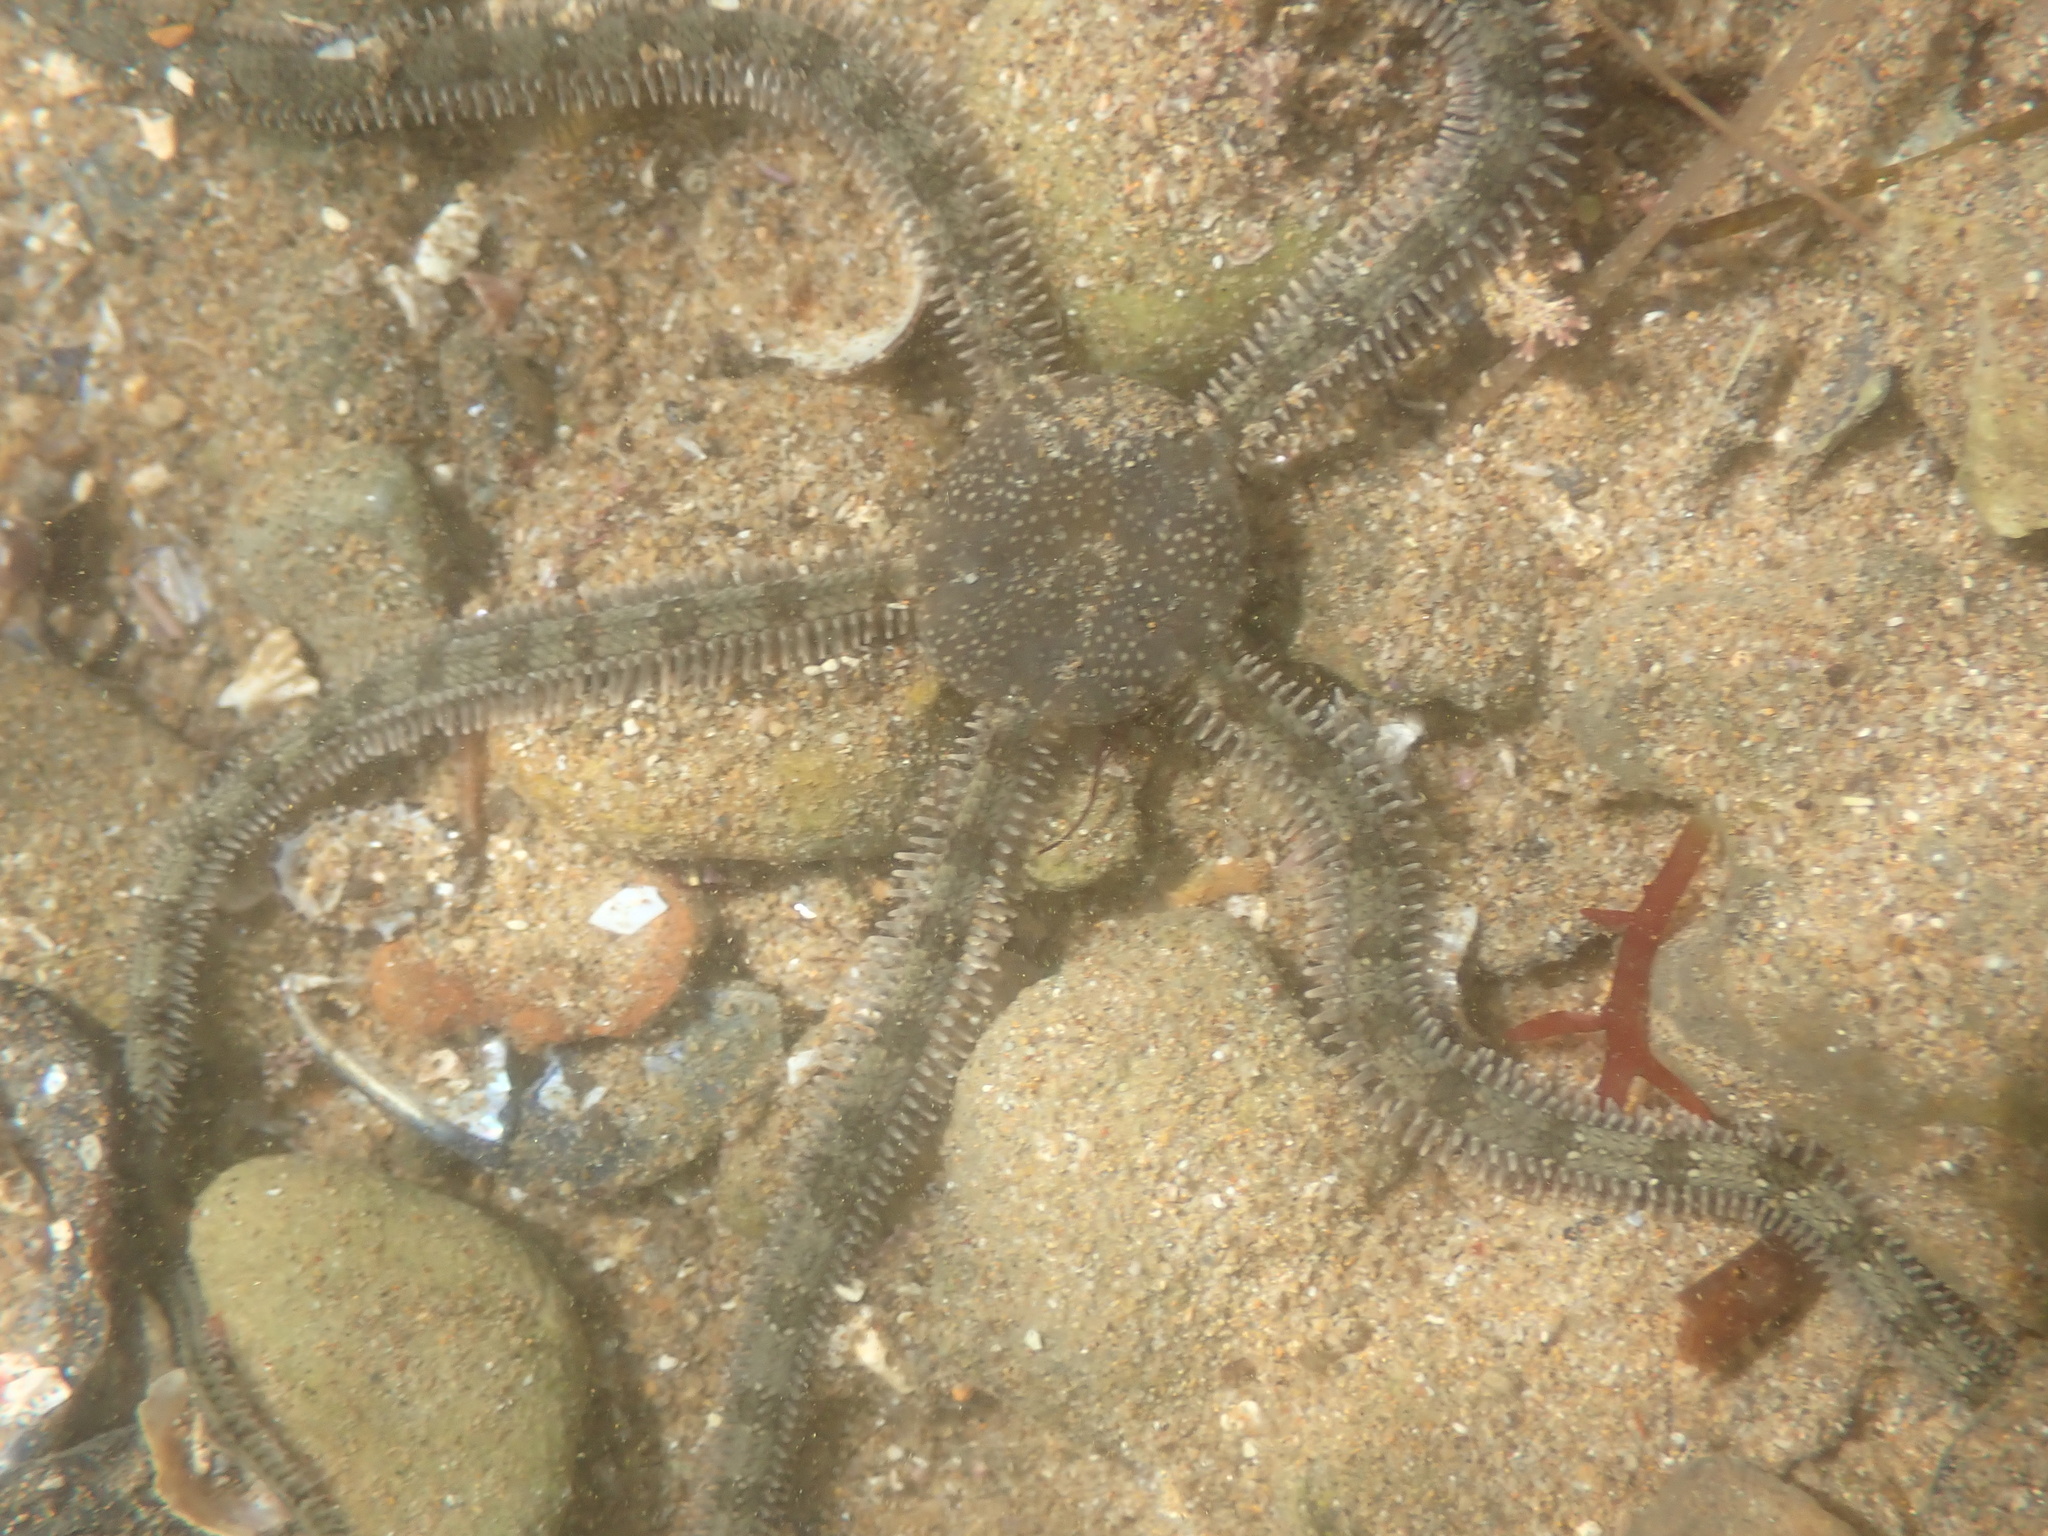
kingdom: Animalia
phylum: Echinodermata
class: Ophiuroidea
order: Amphilepidida
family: Ophionereididae
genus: Ophionereis
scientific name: Ophionereis annulata
